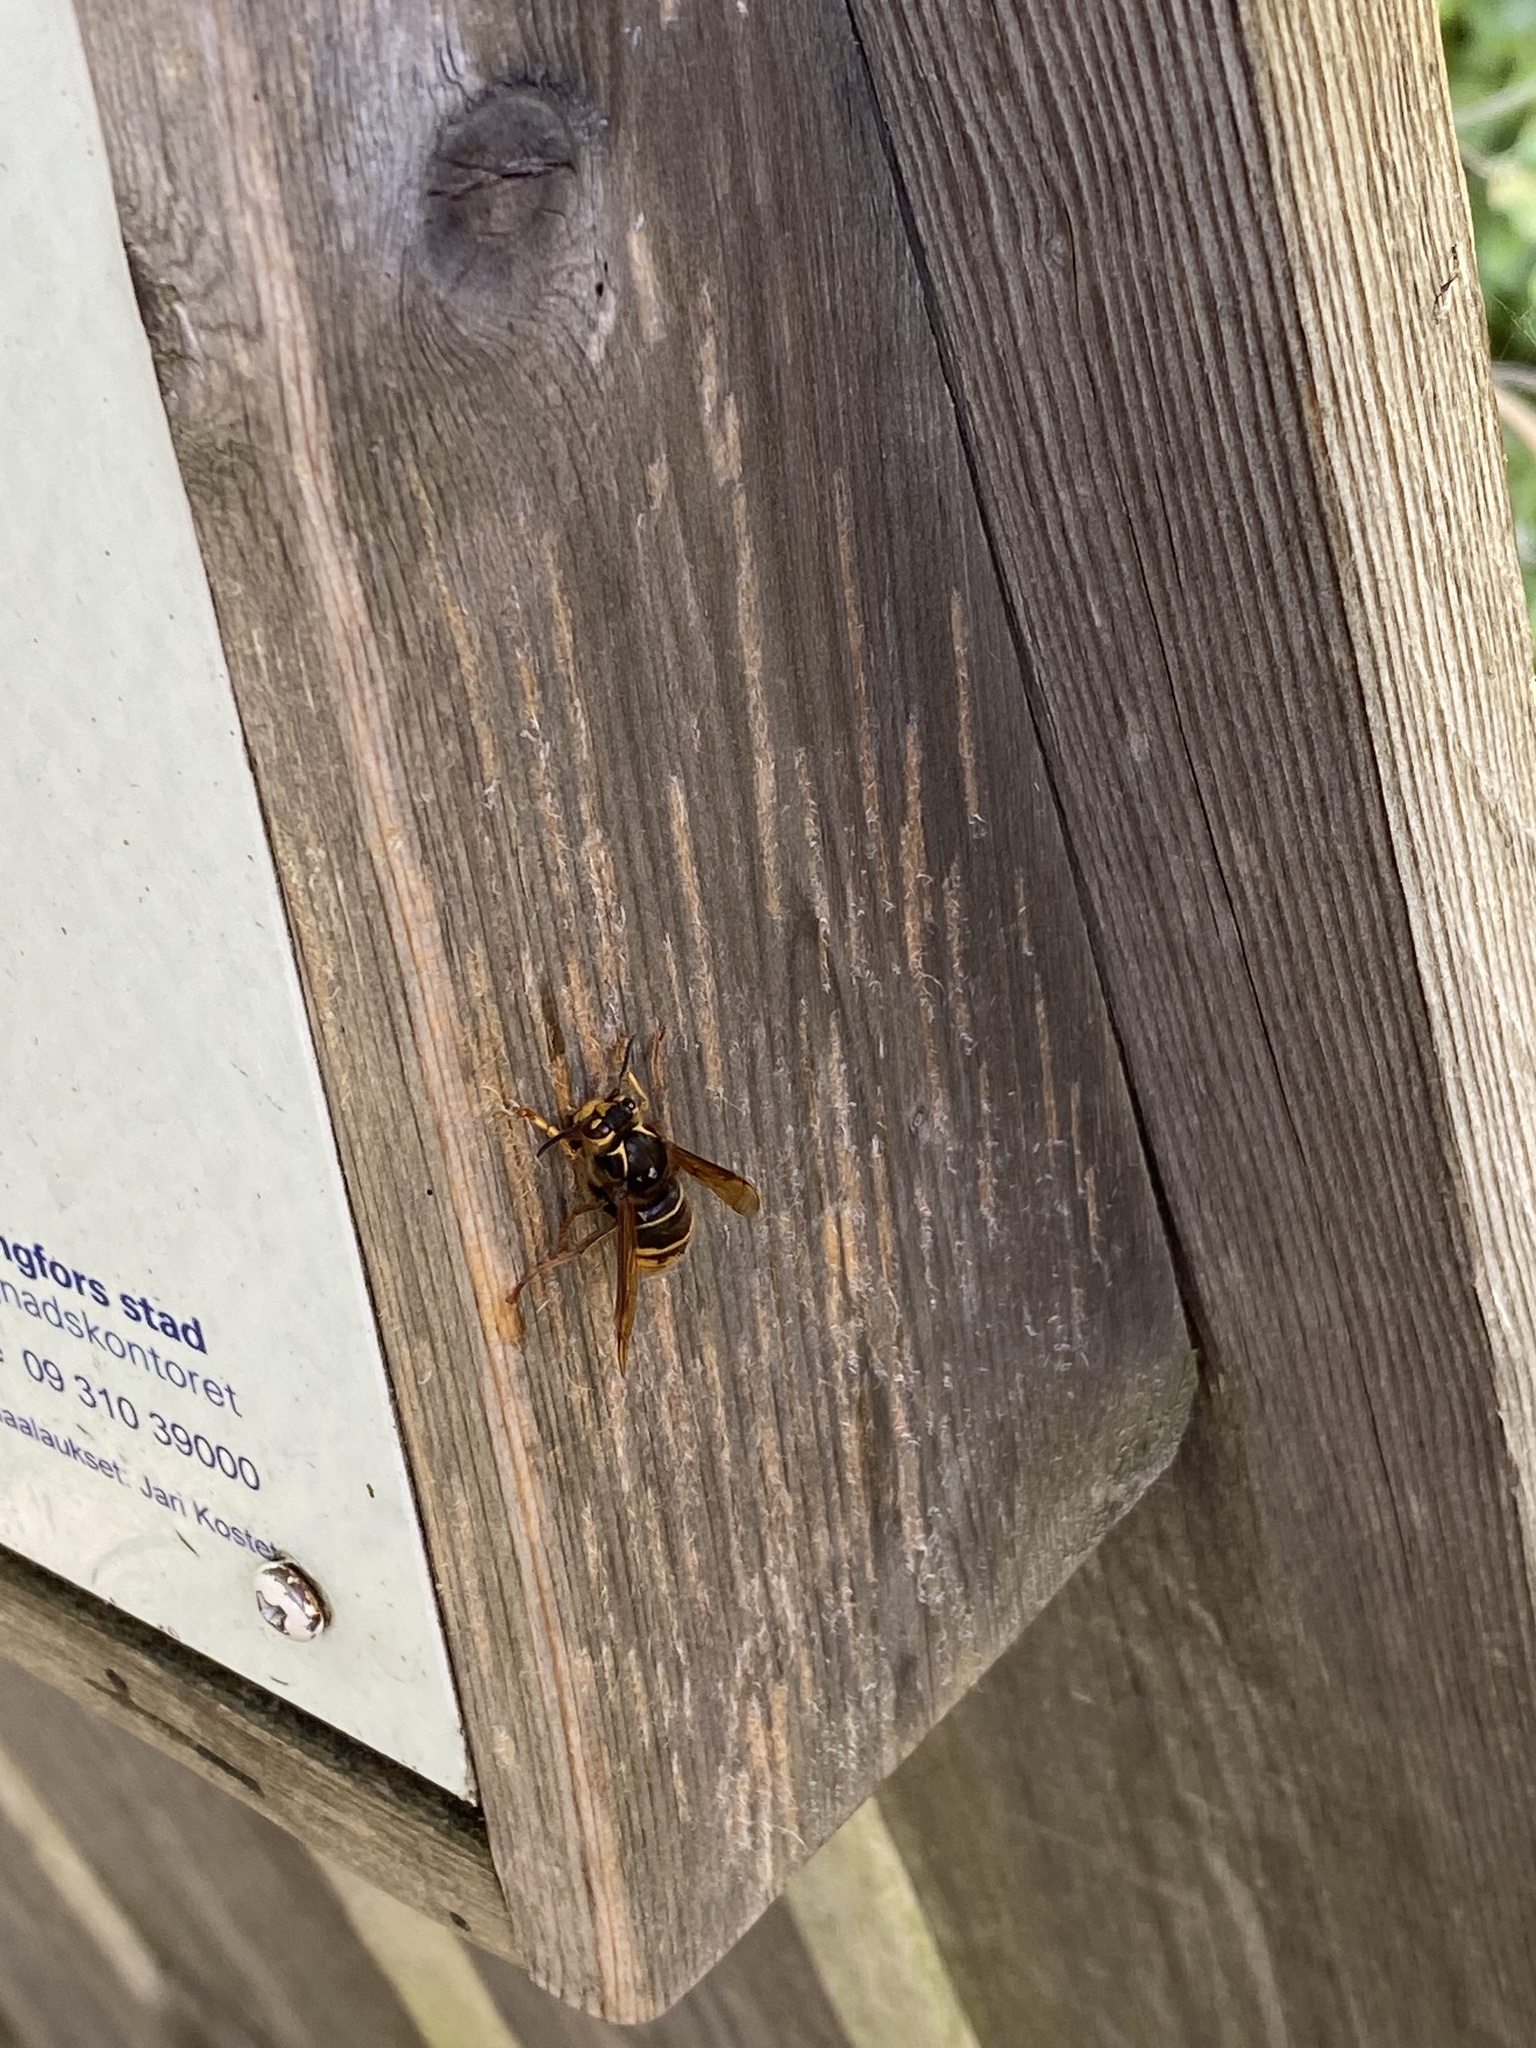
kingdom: Animalia
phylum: Arthropoda
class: Insecta
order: Hymenoptera
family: Vespidae
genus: Dolichovespula
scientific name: Dolichovespula media
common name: Median wasp
